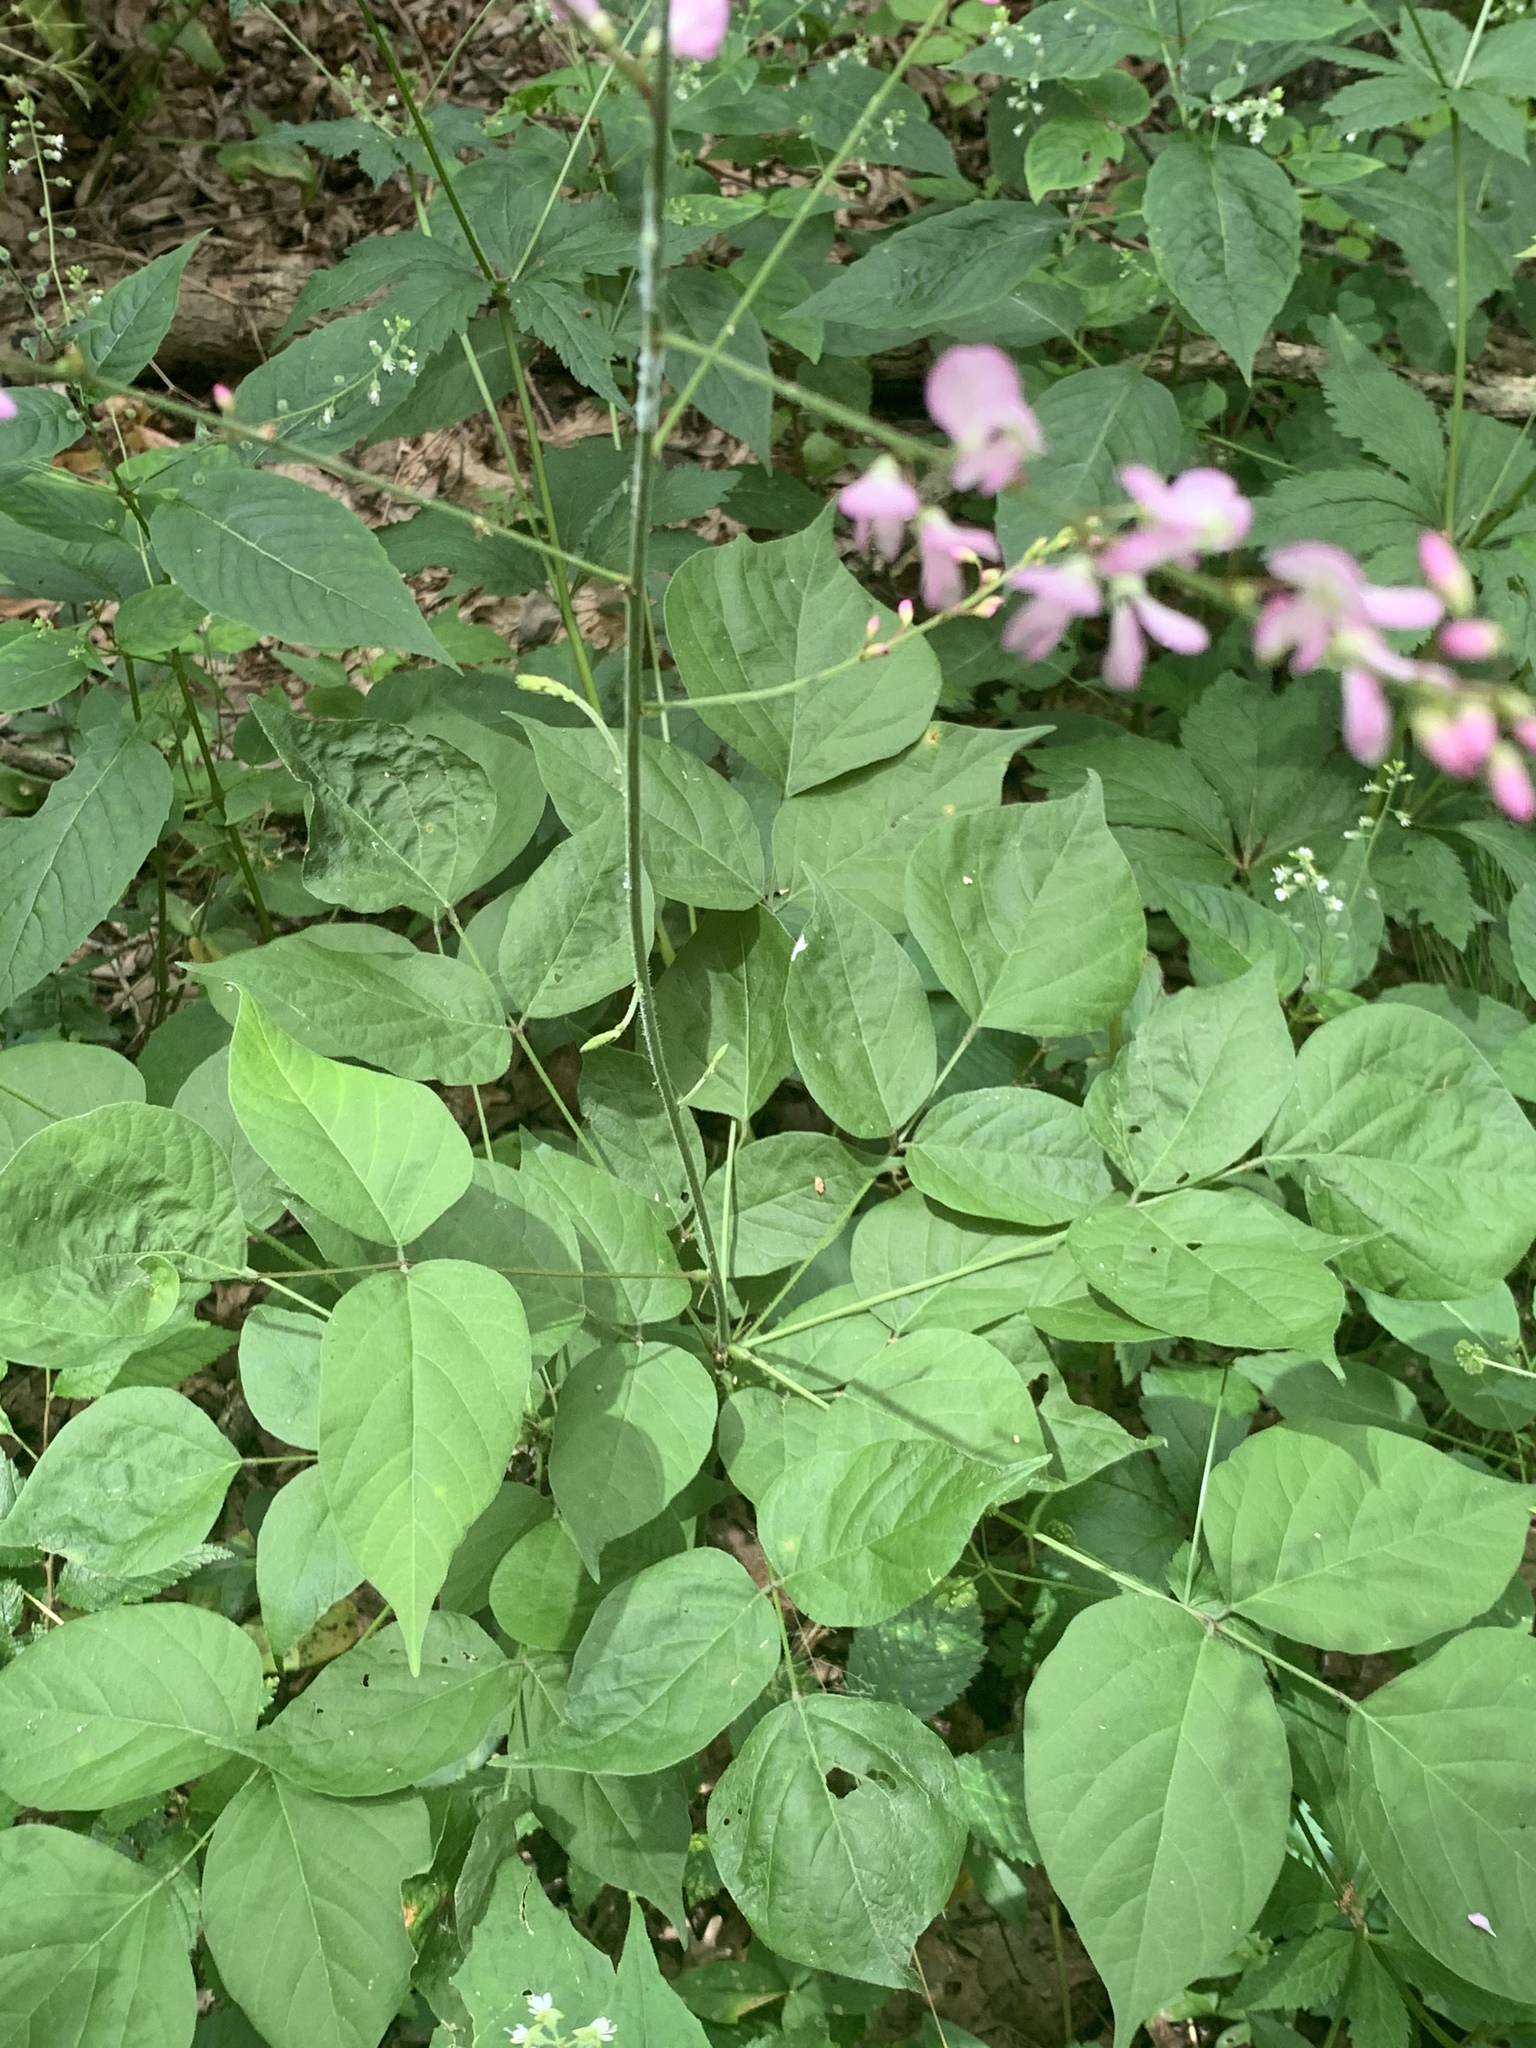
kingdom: Plantae
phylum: Tracheophyta
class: Magnoliopsida
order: Fabales
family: Fabaceae
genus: Hylodesmum
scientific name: Hylodesmum glutinosum
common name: Clustered-leaved tick-trefoil
